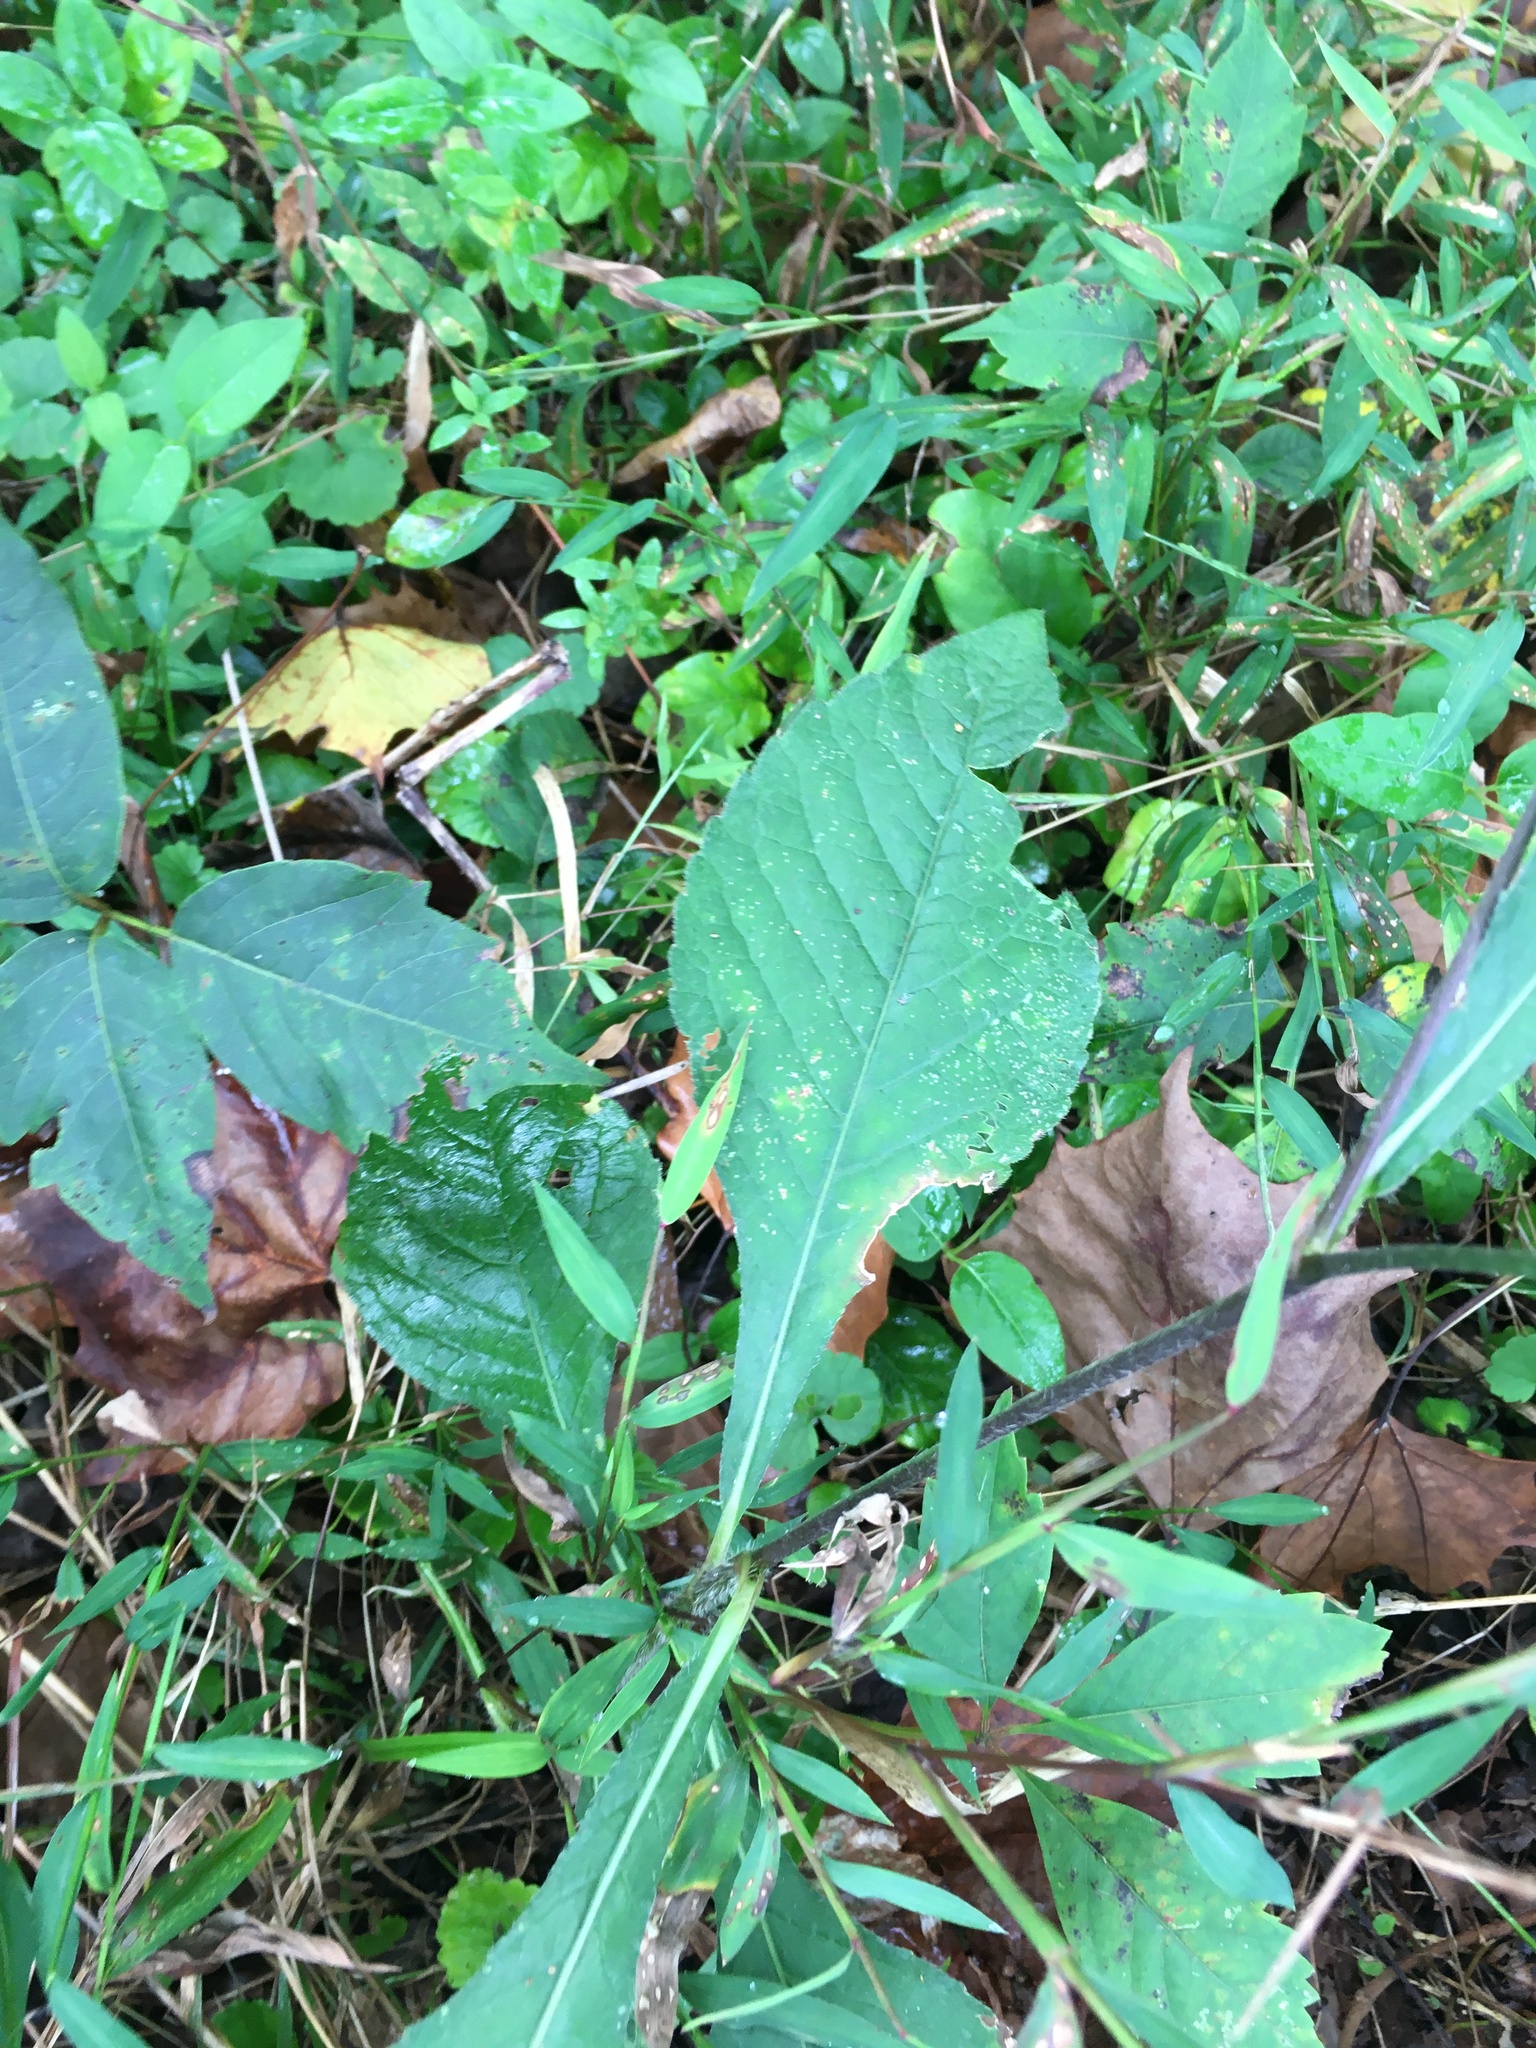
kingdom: Plantae
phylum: Tracheophyta
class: Magnoliopsida
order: Asterales
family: Asteraceae
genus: Elephantopus
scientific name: Elephantopus carolinianus
